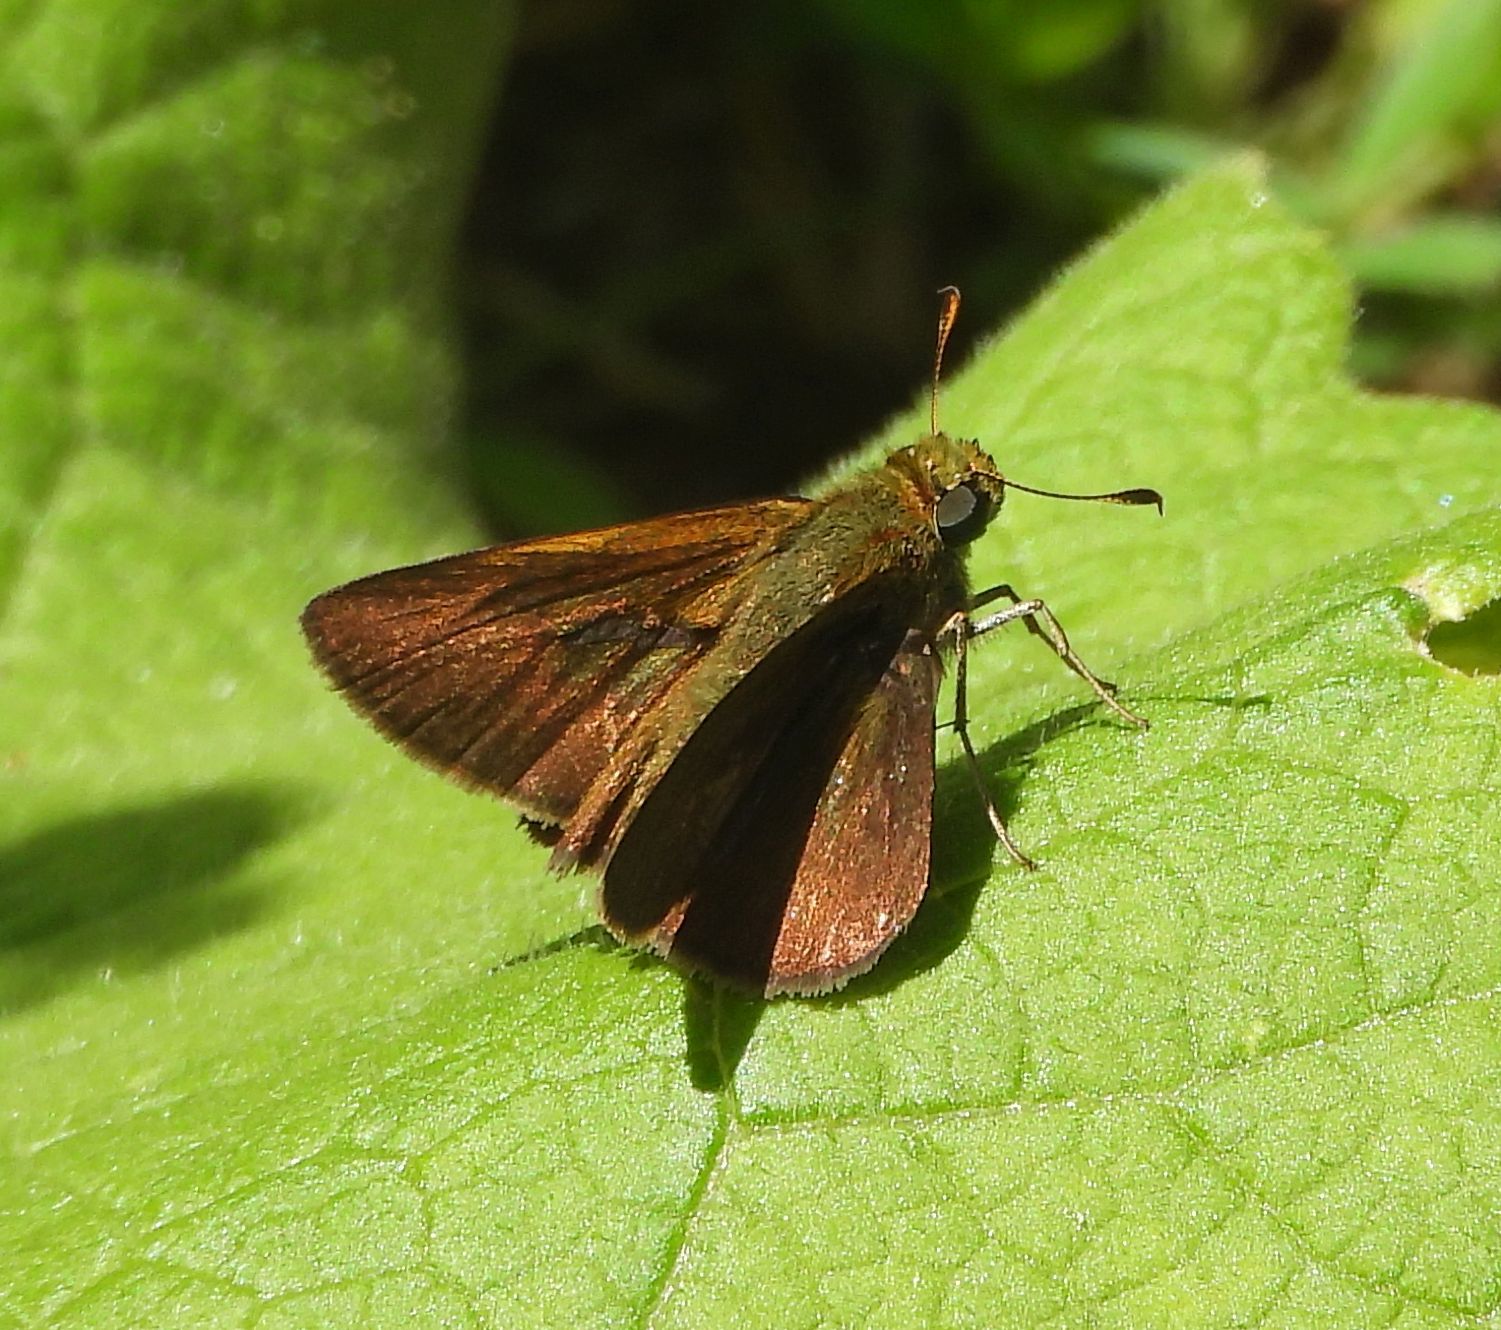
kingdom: Animalia
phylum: Arthropoda
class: Insecta
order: Lepidoptera
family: Hesperiidae
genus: Euphyes
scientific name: Euphyes vestris
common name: Dun skipper
